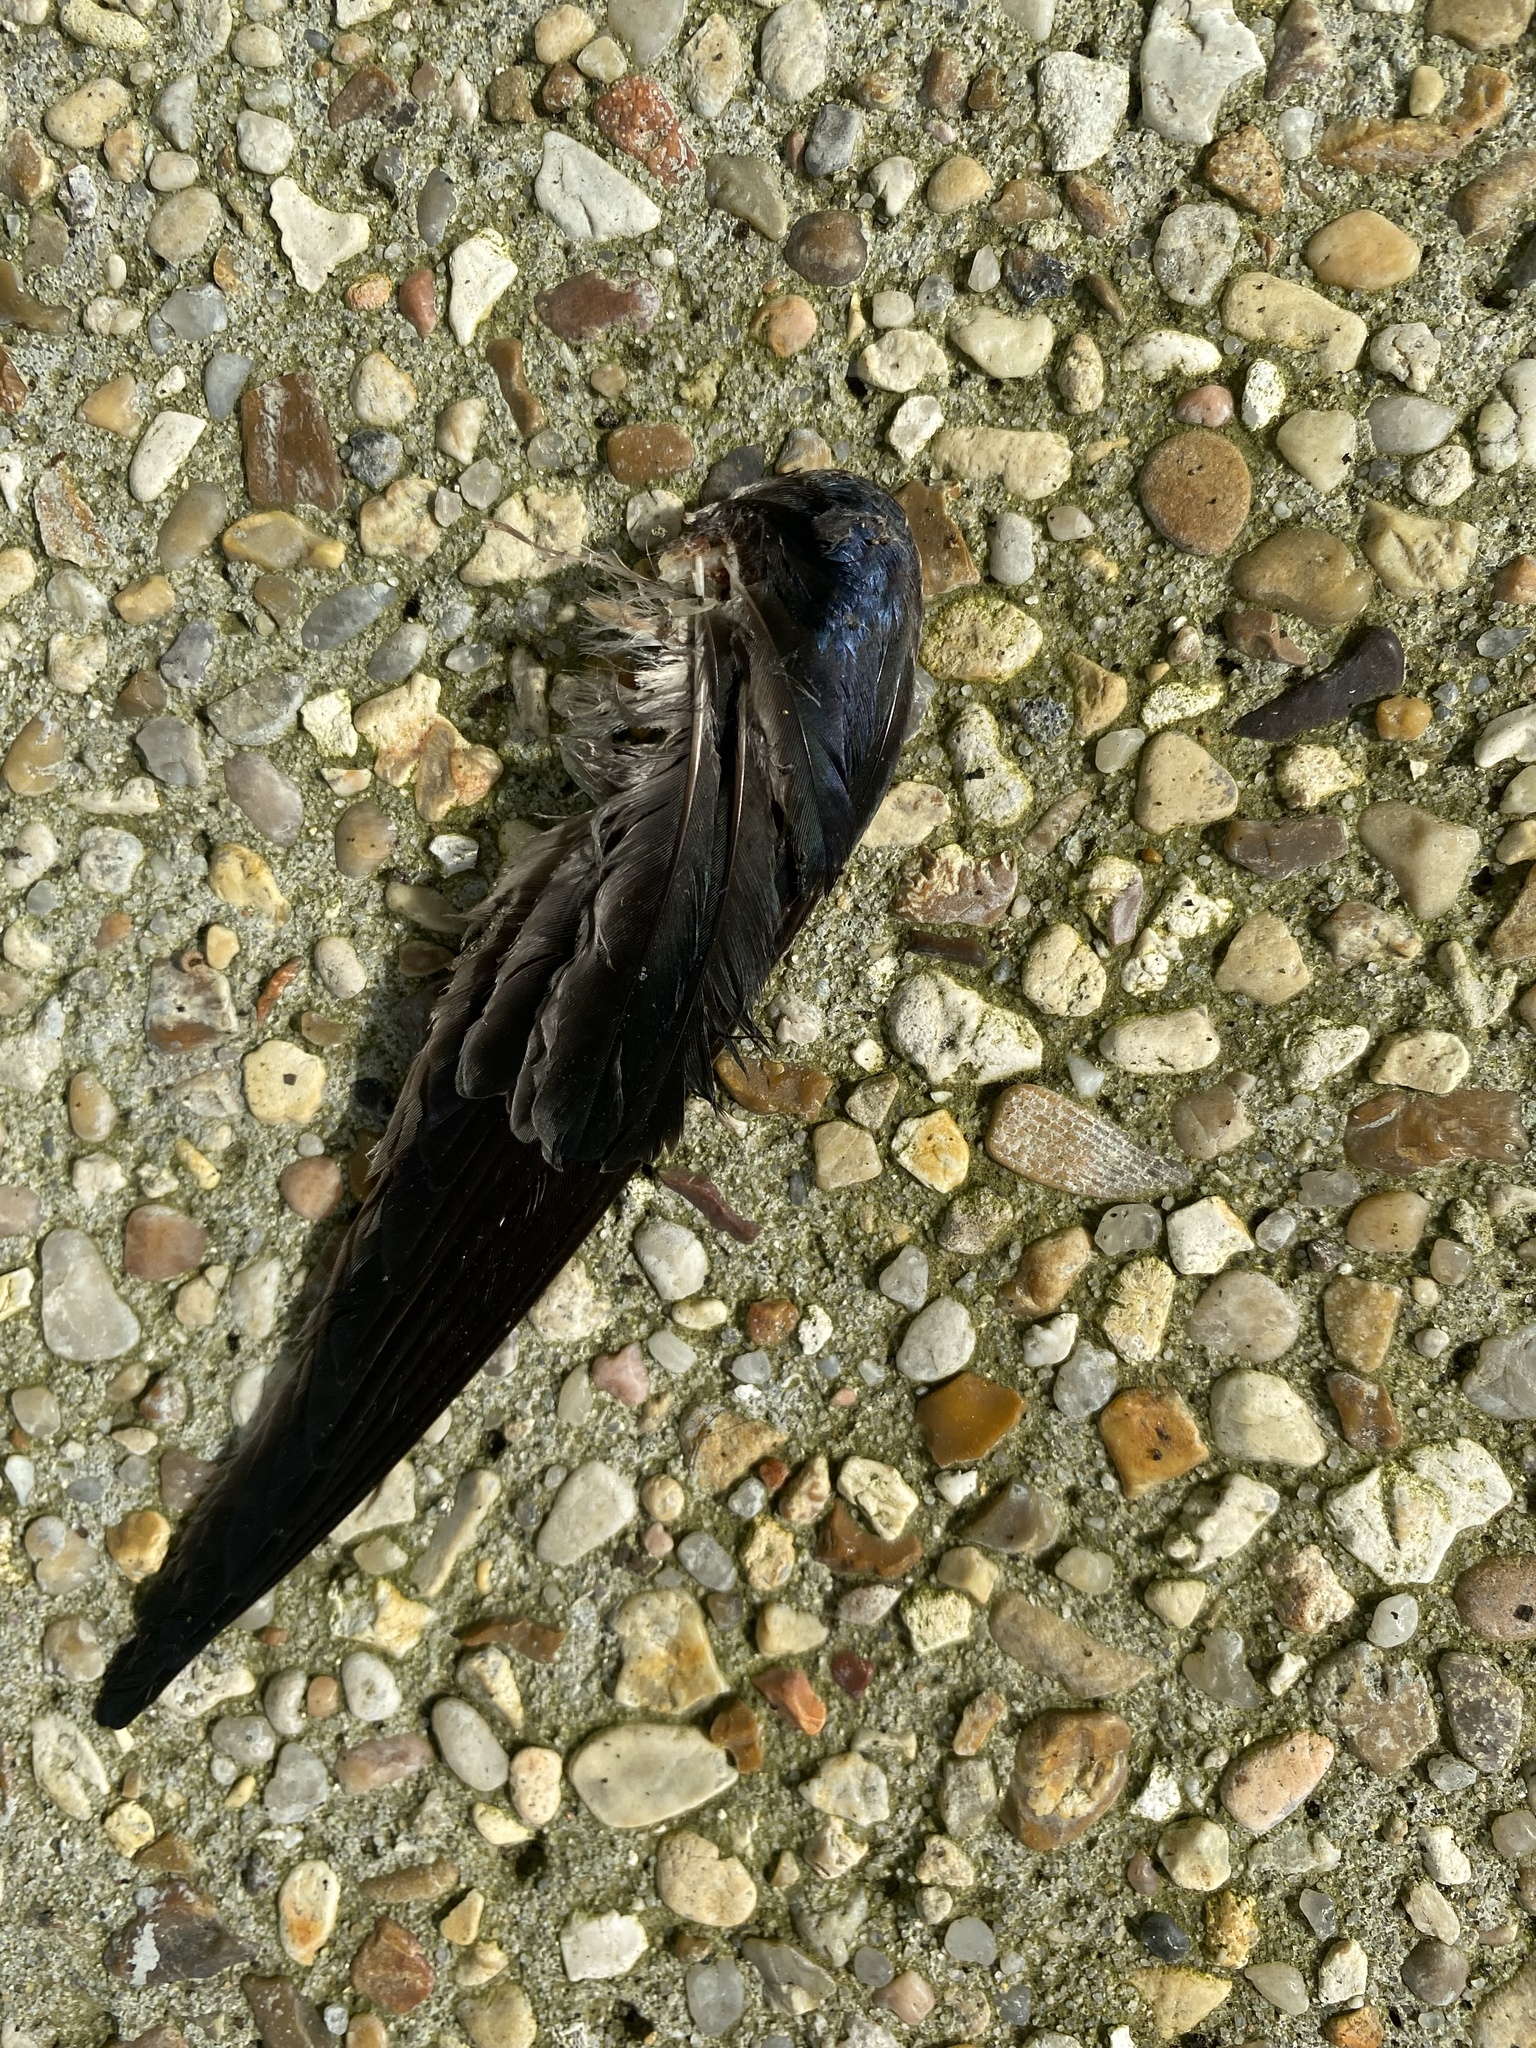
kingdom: Animalia
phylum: Chordata
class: Aves
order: Passeriformes
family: Hirundinidae
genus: Hirundo
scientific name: Hirundo rustica
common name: Barn swallow
